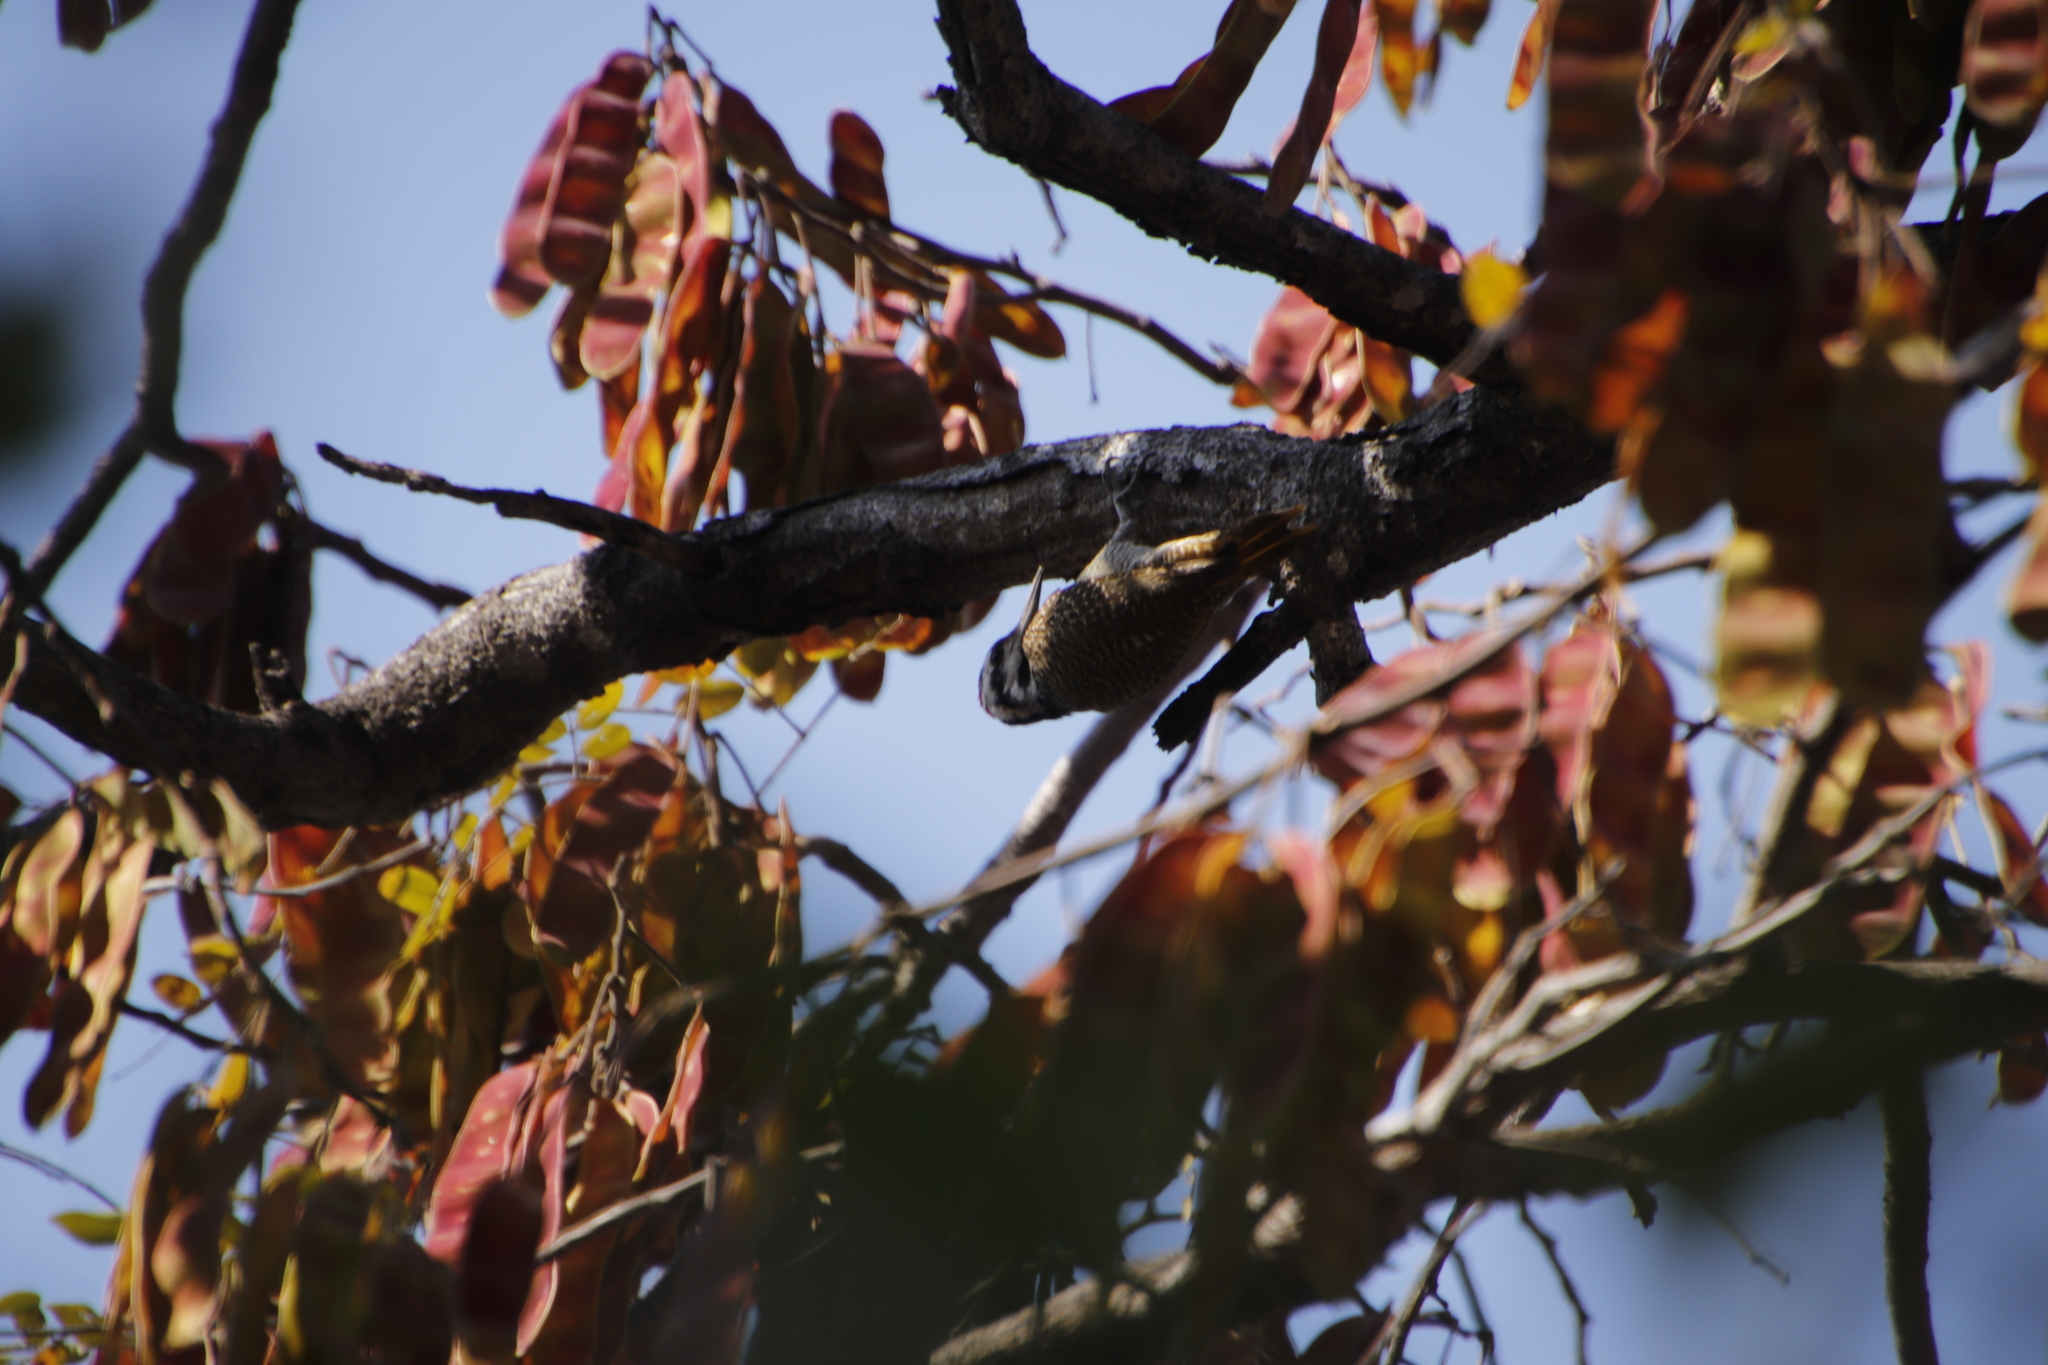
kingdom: Animalia
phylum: Chordata
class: Aves
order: Piciformes
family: Picidae
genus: Chloropicus
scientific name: Chloropicus namaquus
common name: Bearded woodpecker
